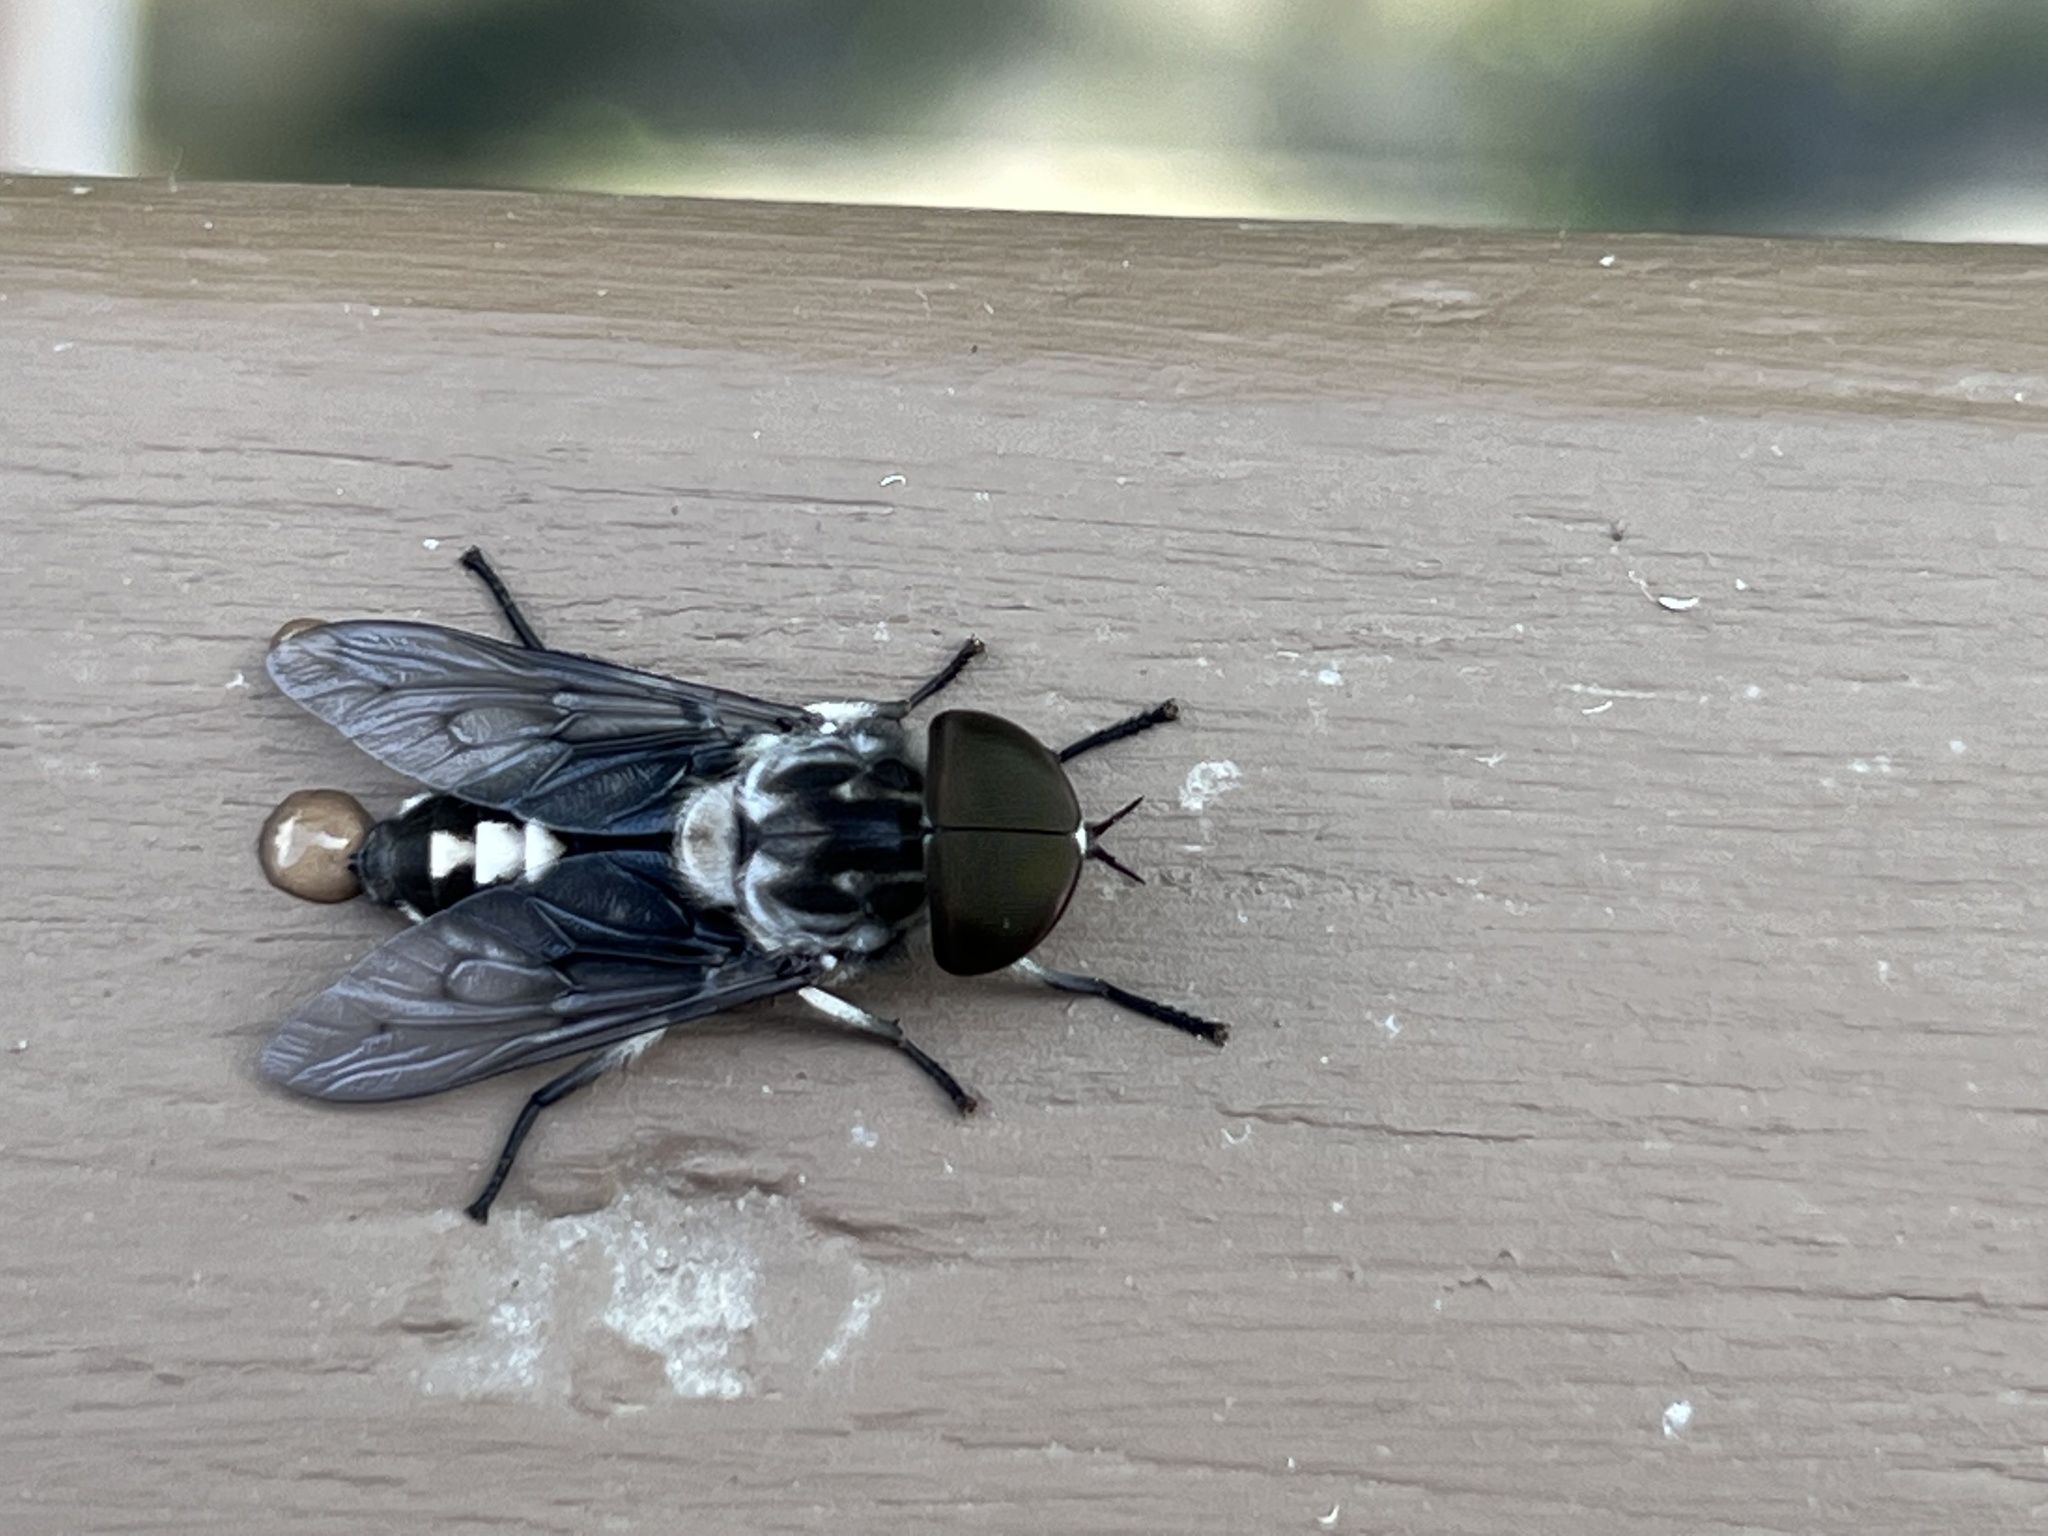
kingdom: Animalia
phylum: Arthropoda
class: Insecta
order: Diptera
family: Tabanidae
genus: Tabanus
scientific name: Tabanus trimaculatus
